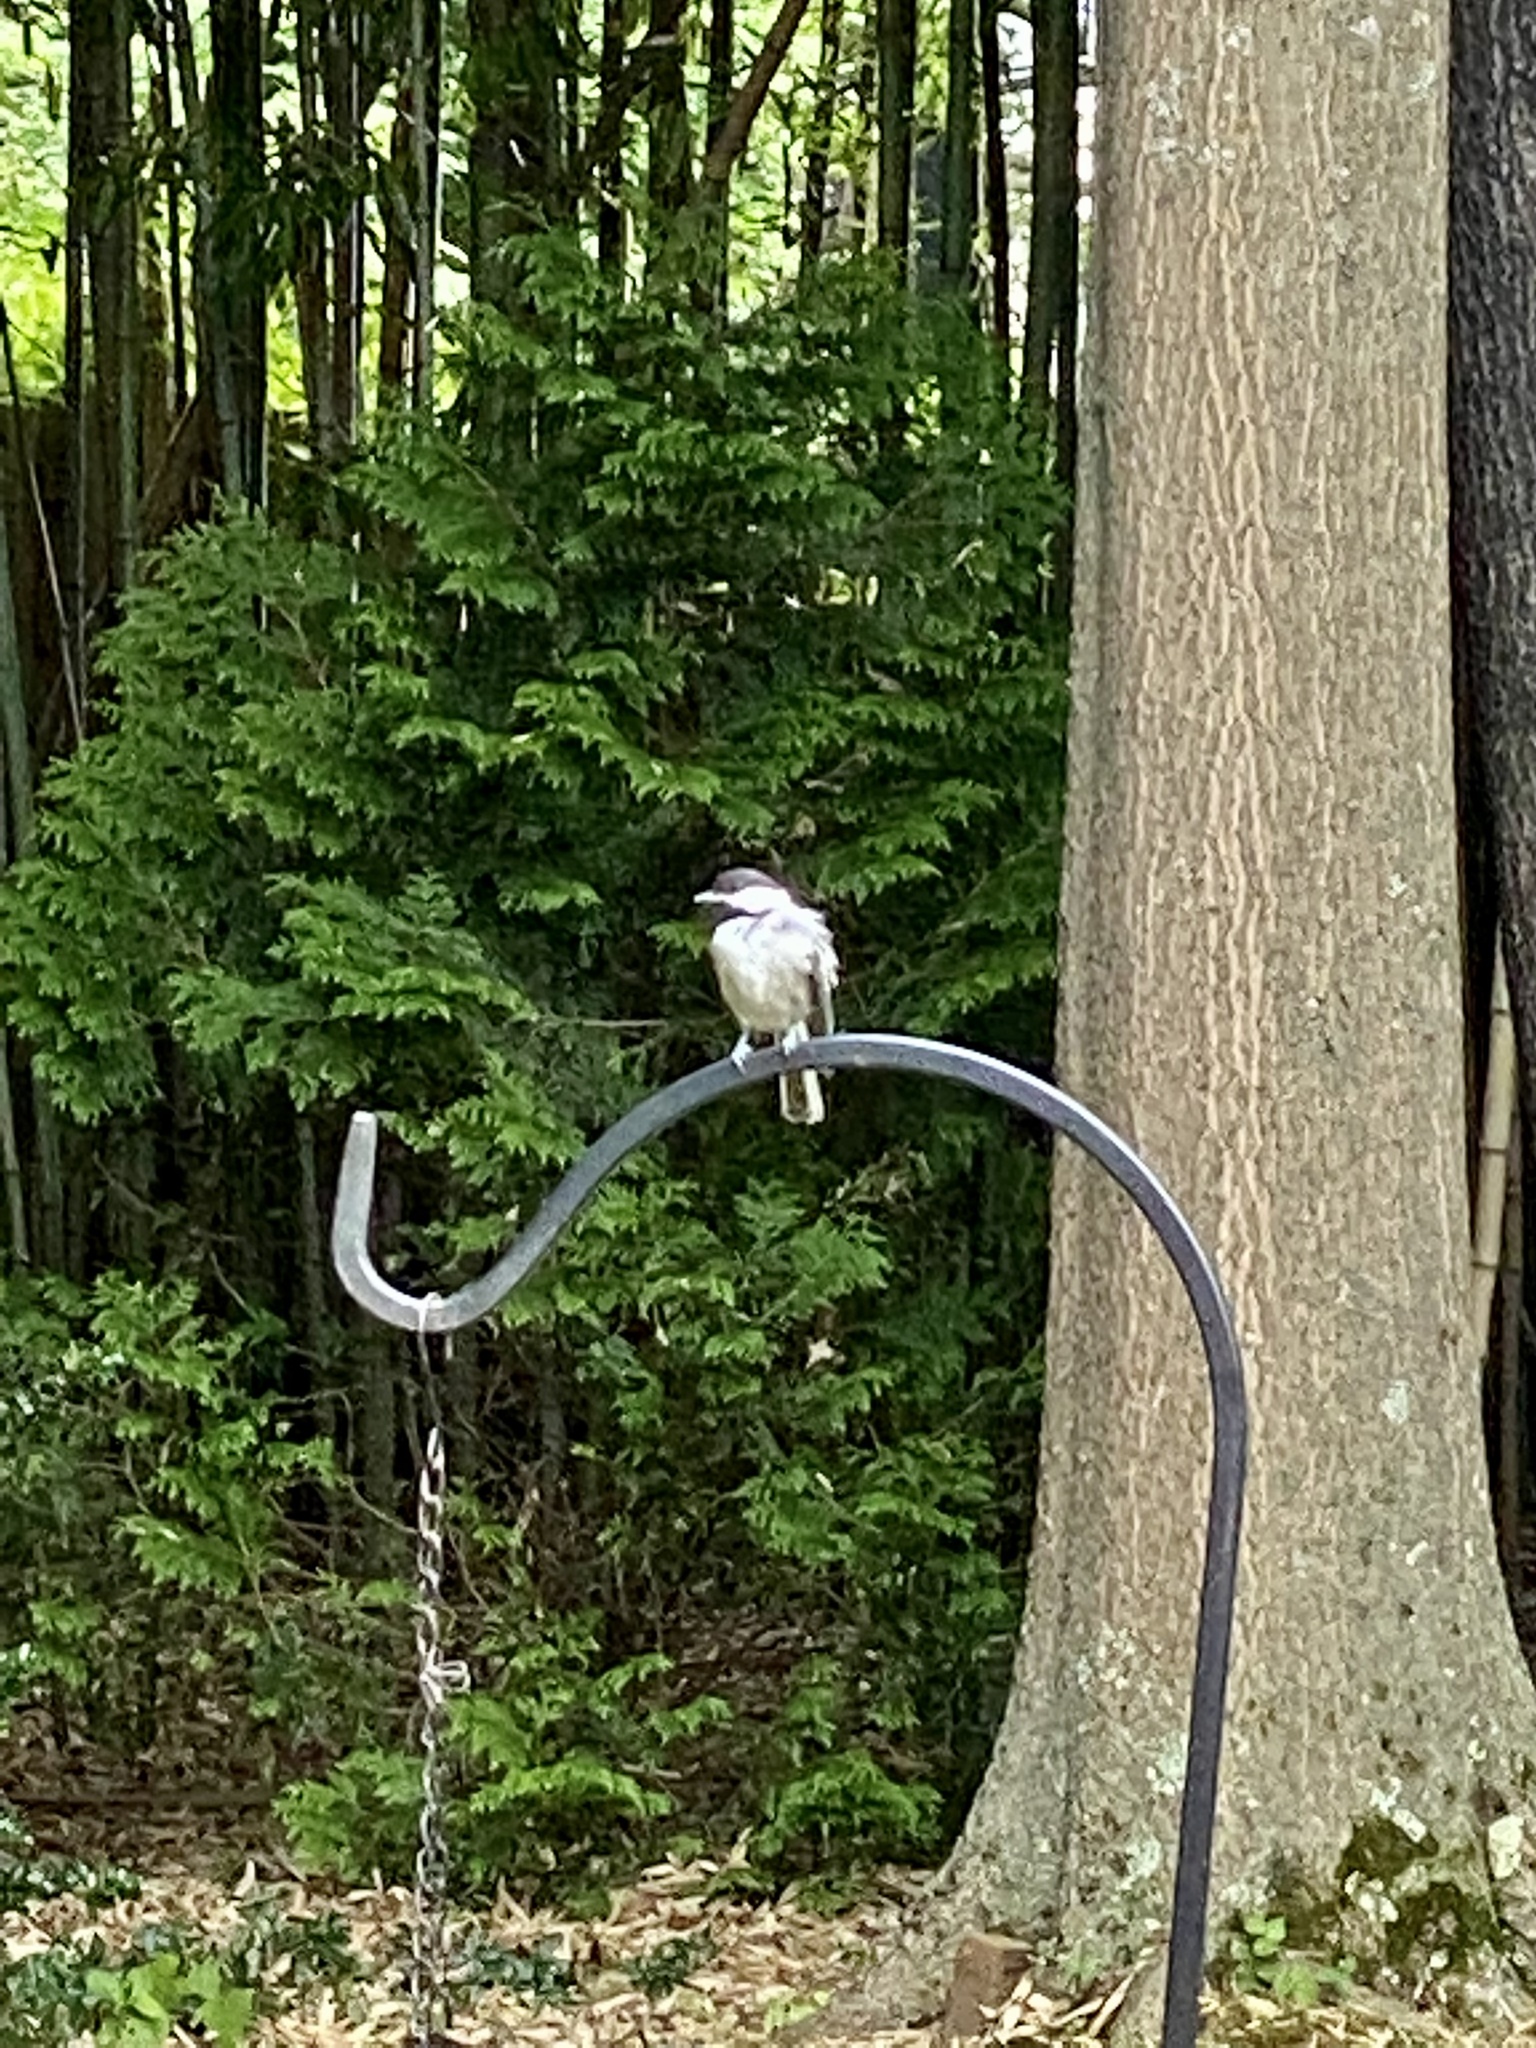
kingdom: Animalia
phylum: Chordata
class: Aves
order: Passeriformes
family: Paridae
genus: Poecile
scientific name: Poecile atricapillus
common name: Black-capped chickadee
